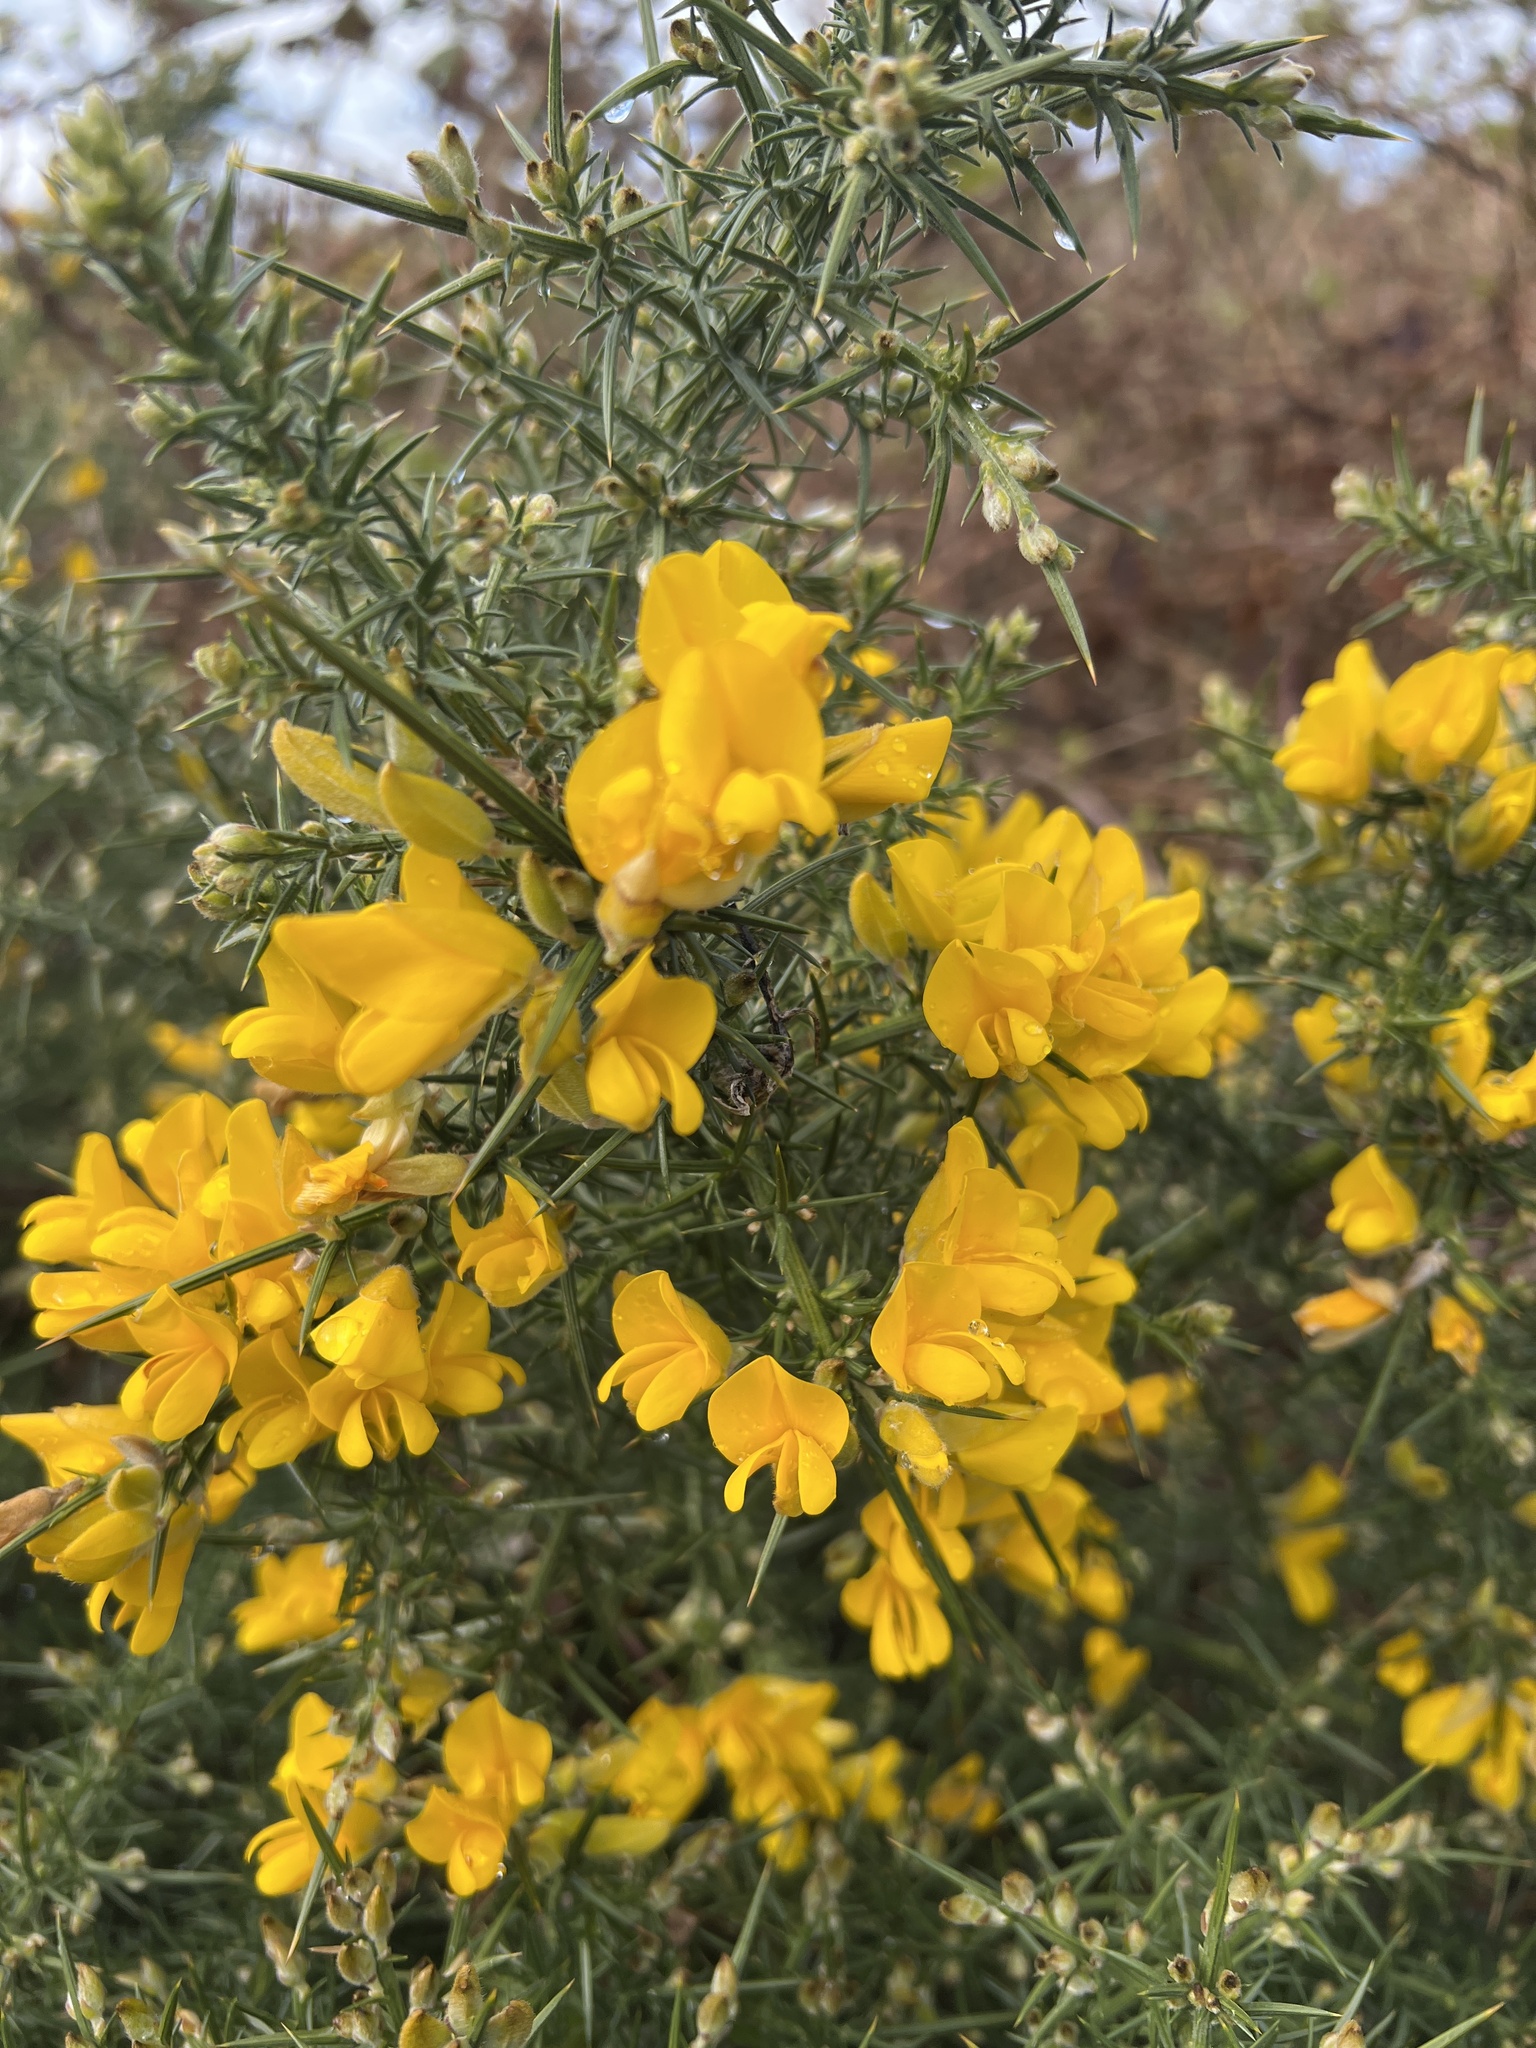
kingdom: Plantae
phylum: Tracheophyta
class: Magnoliopsida
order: Fabales
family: Fabaceae
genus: Ulex
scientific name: Ulex europaeus
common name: Common gorse
